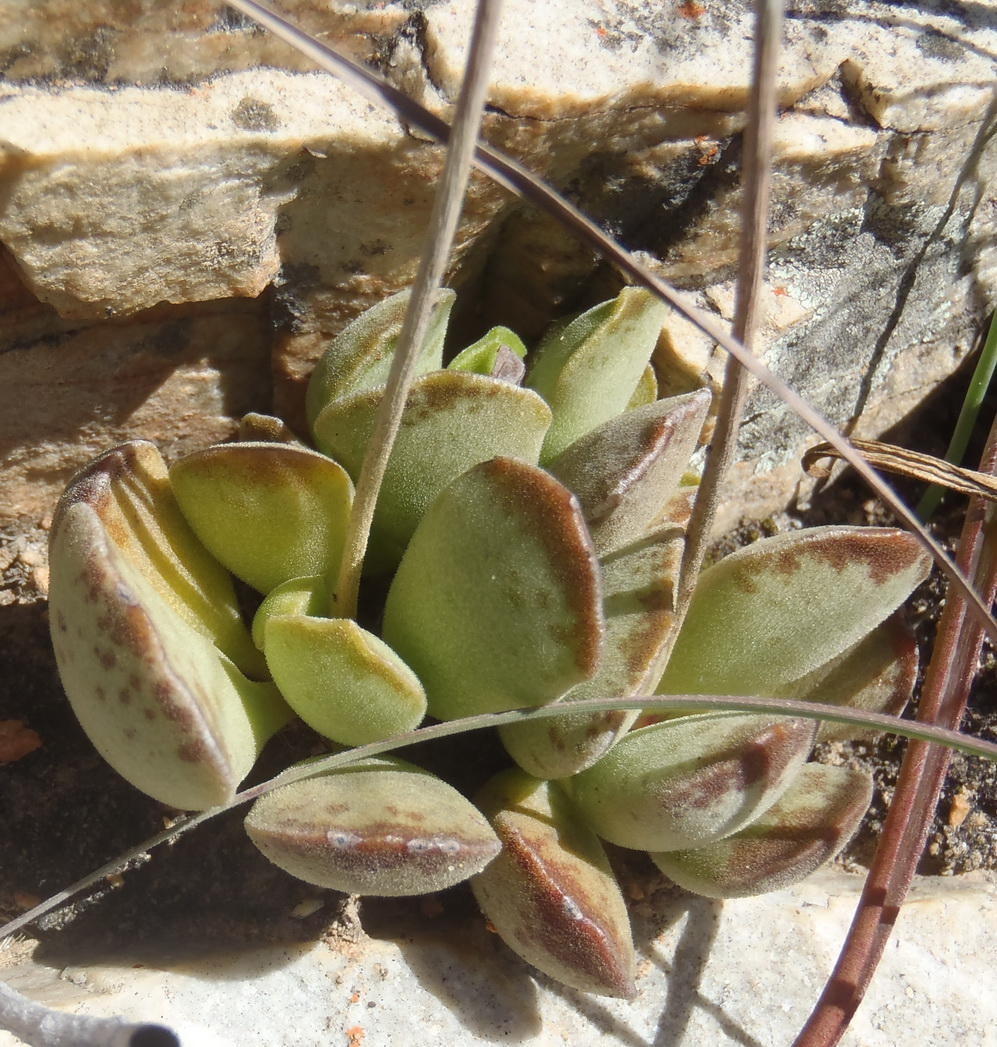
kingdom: Plantae
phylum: Tracheophyta
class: Magnoliopsida
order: Saxifragales
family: Crassulaceae
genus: Adromischus
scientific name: Adromischus cristatus
